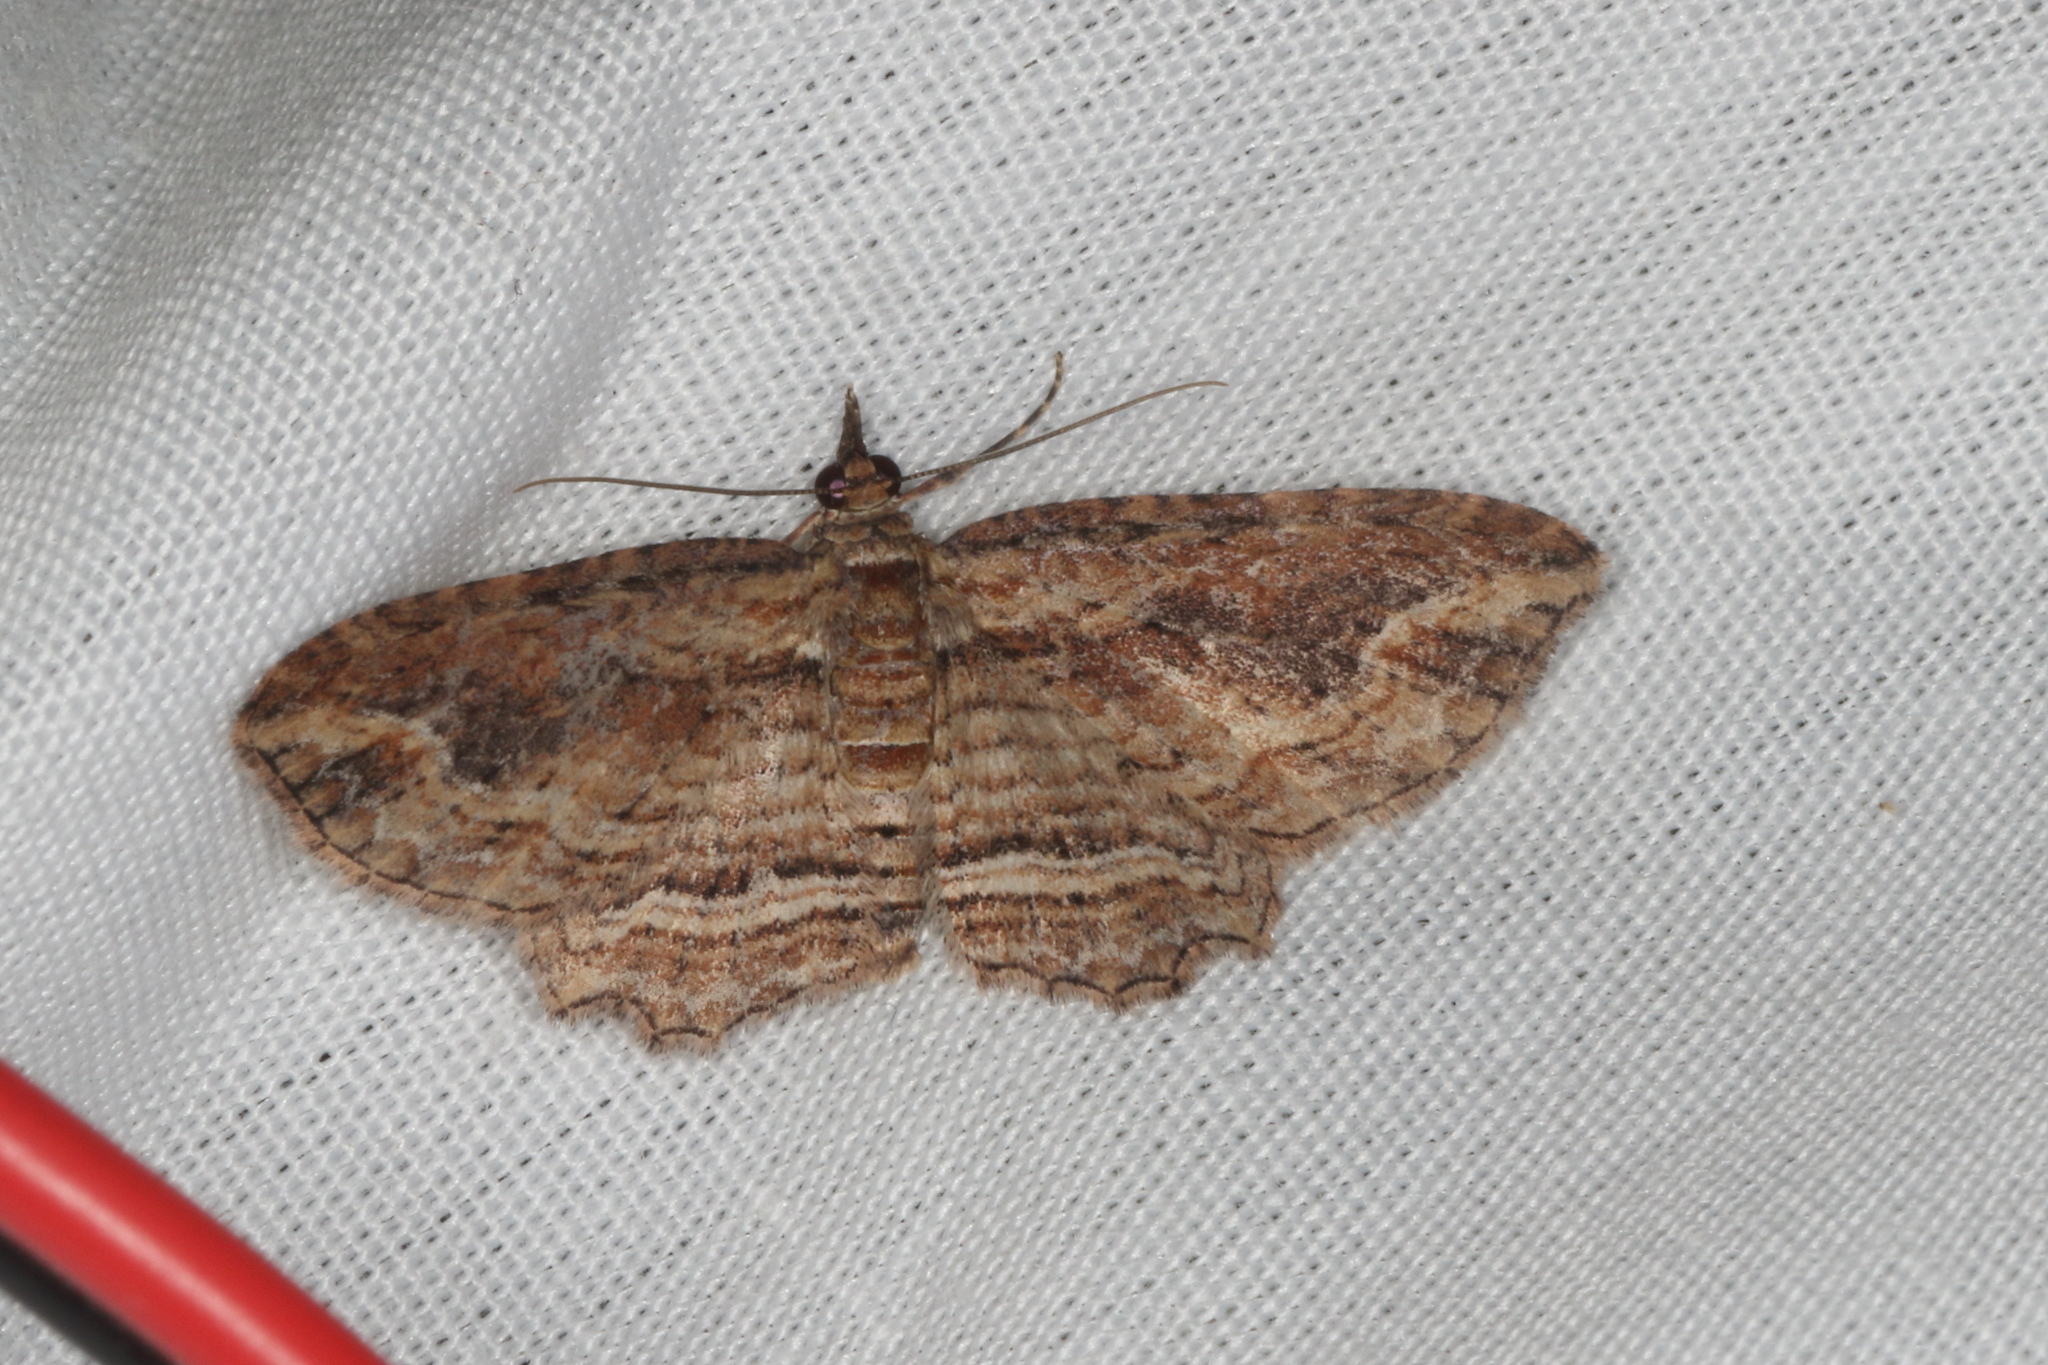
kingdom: Animalia
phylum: Arthropoda
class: Insecta
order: Lepidoptera
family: Geometridae
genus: Chloroclystis
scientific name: Chloroclystis filata
